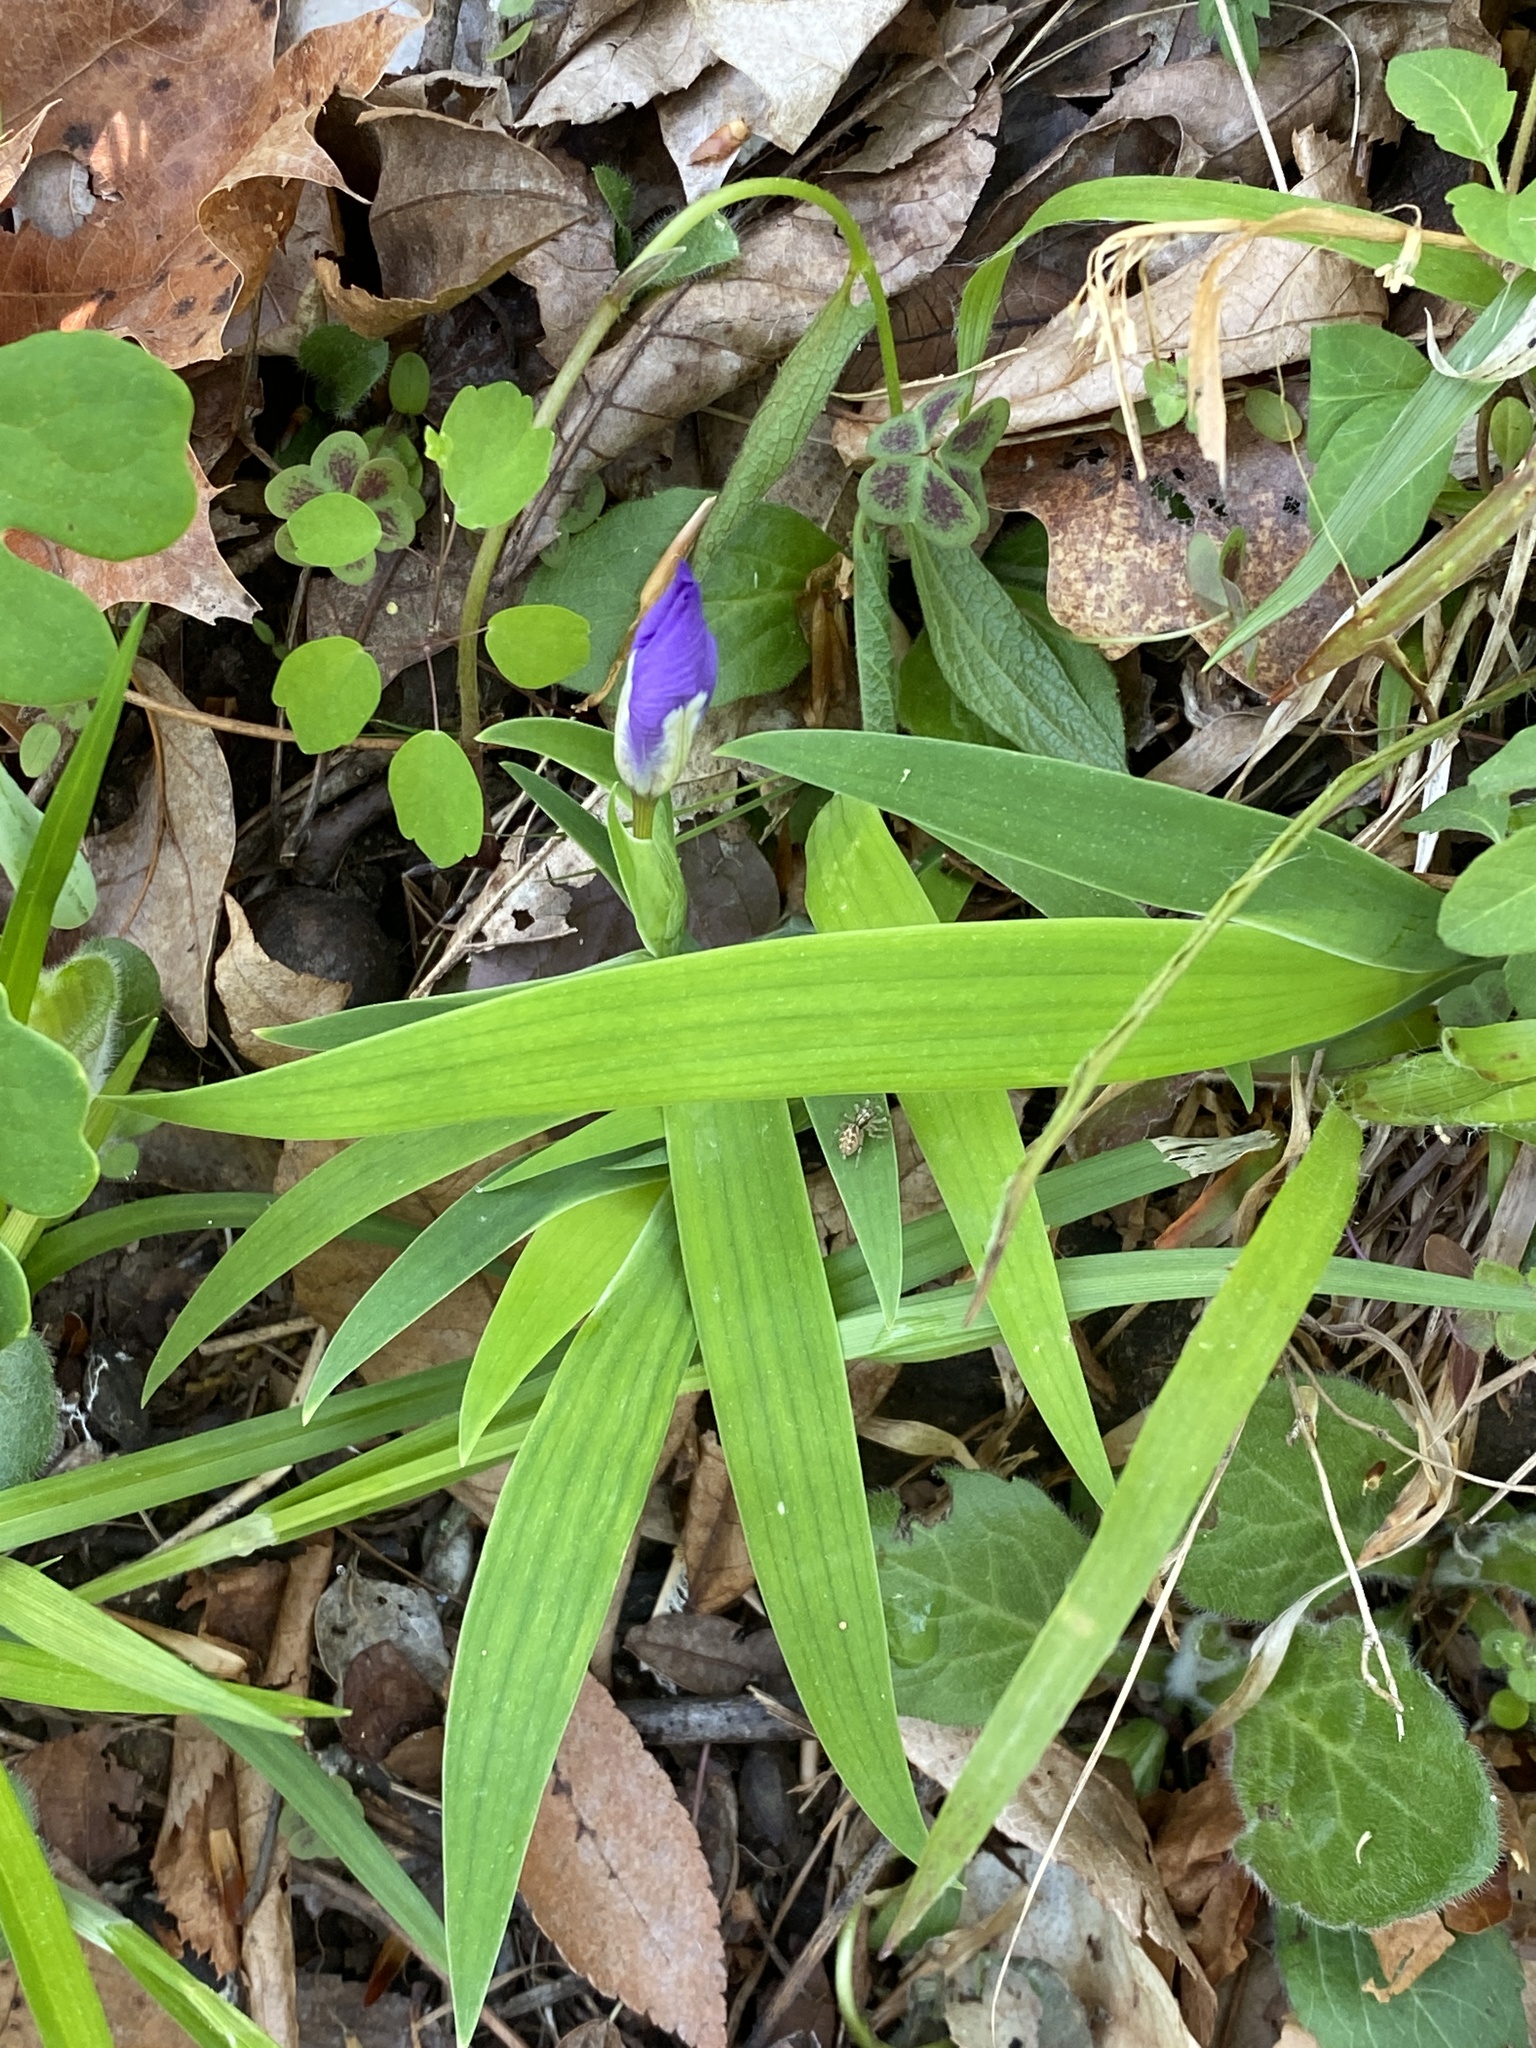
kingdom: Plantae
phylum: Tracheophyta
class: Liliopsida
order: Asparagales
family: Iridaceae
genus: Iris
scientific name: Iris cristata
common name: Crested iris
